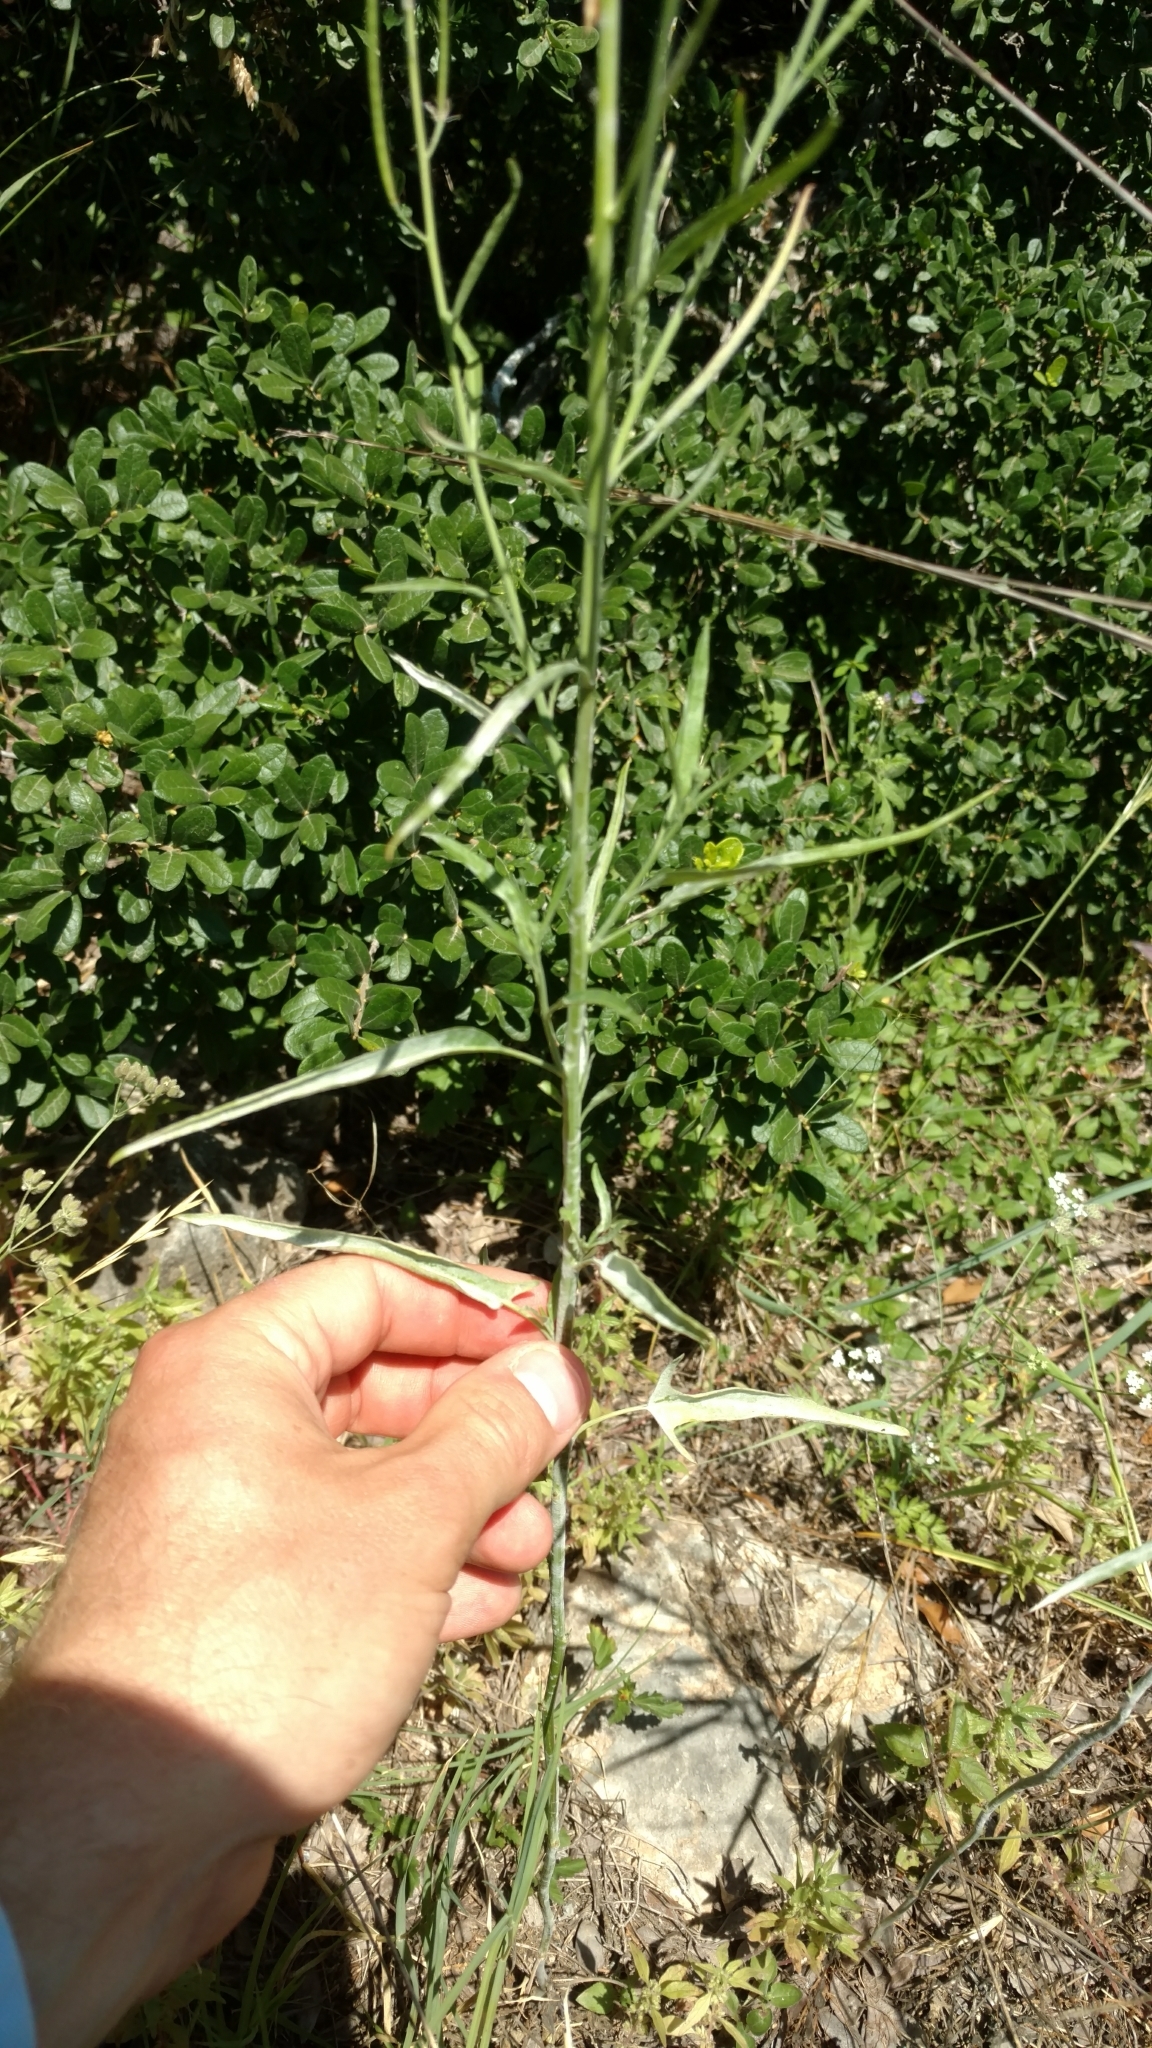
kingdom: Plantae
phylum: Tracheophyta
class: Magnoliopsida
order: Brassicales
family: Brassicaceae
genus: Streptanthus
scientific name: Streptanthus petiolaris
